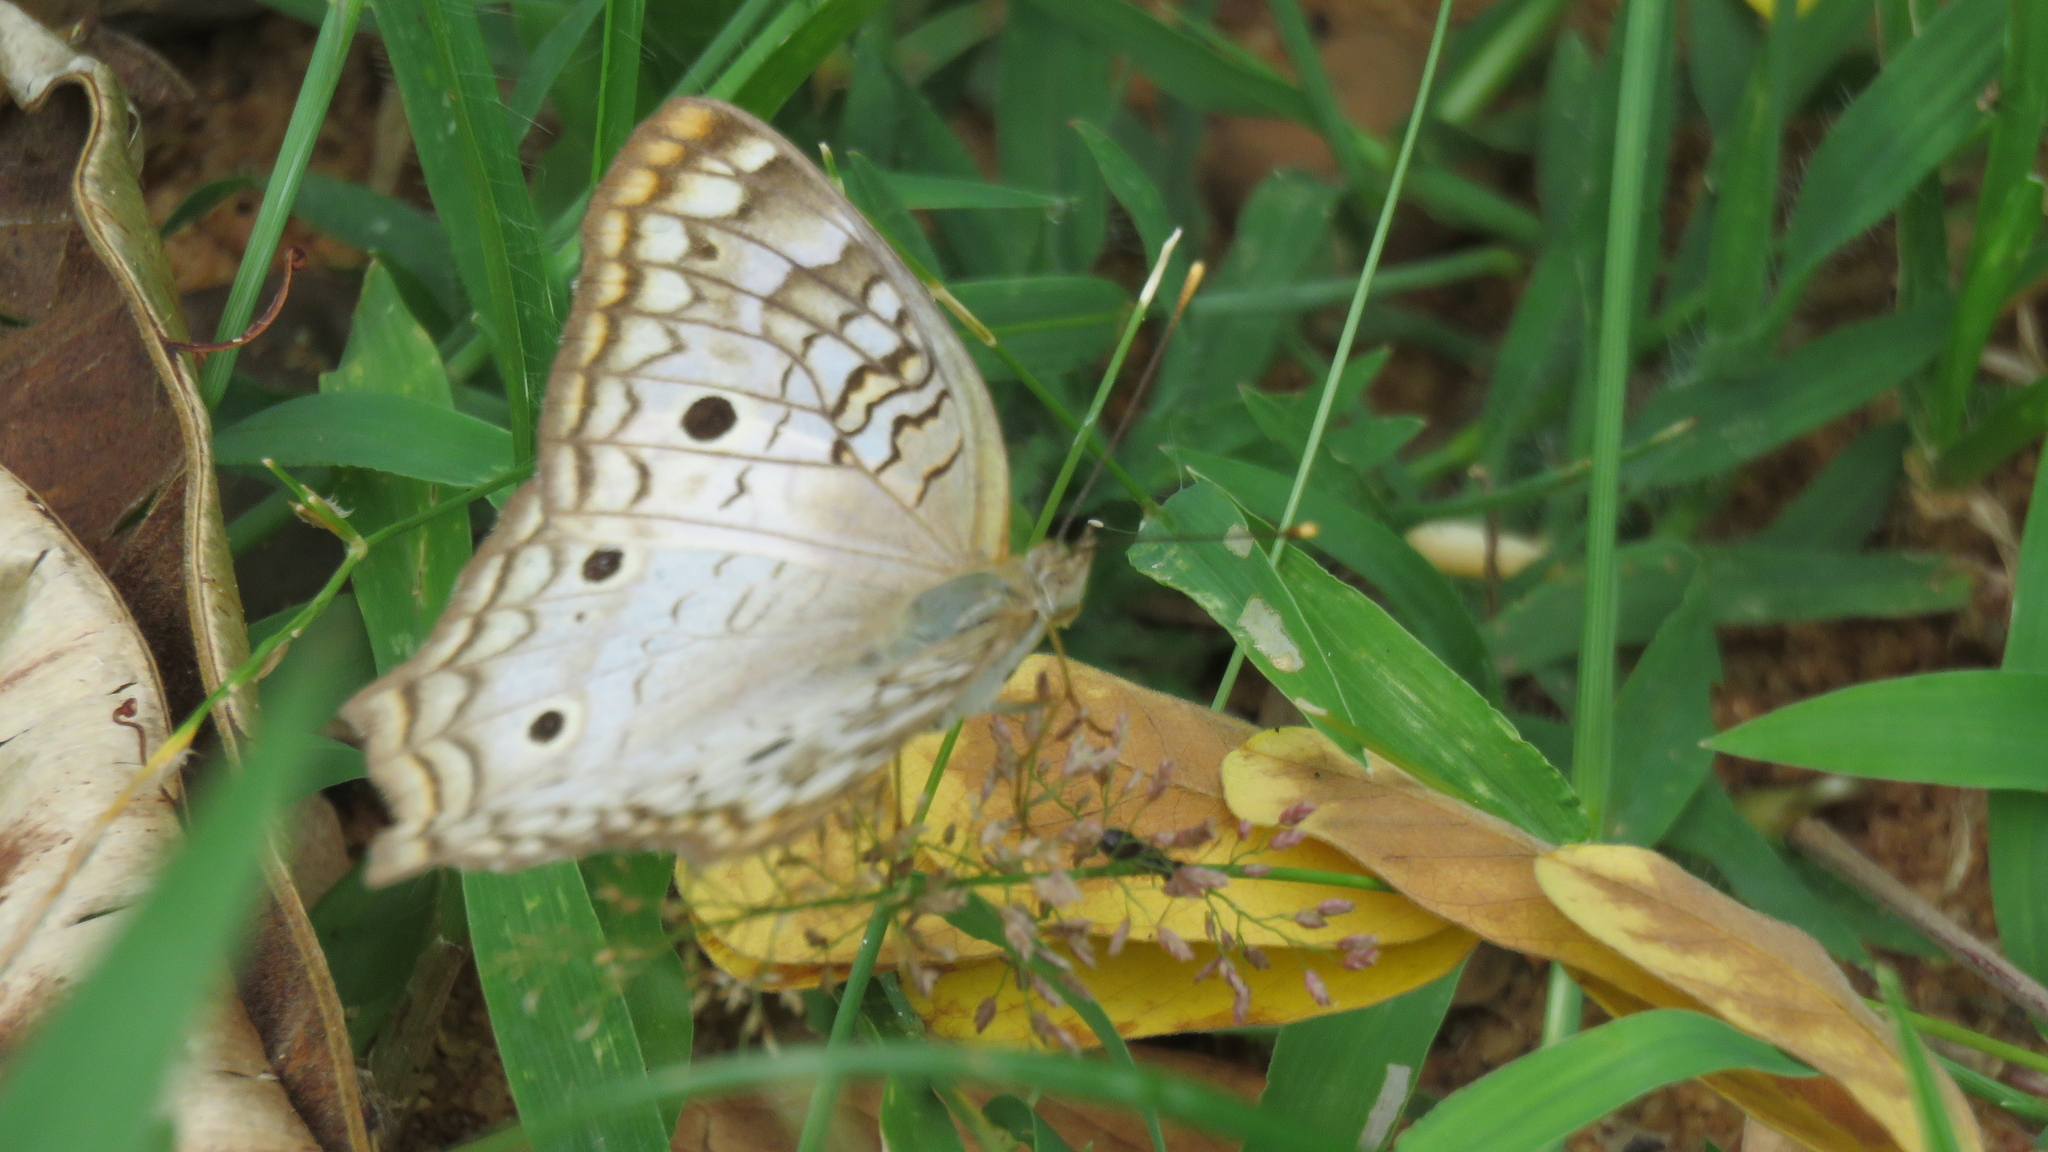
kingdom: Animalia
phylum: Arthropoda
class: Insecta
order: Lepidoptera
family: Nymphalidae
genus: Anartia
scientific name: Anartia jatrophae
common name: White peacock
